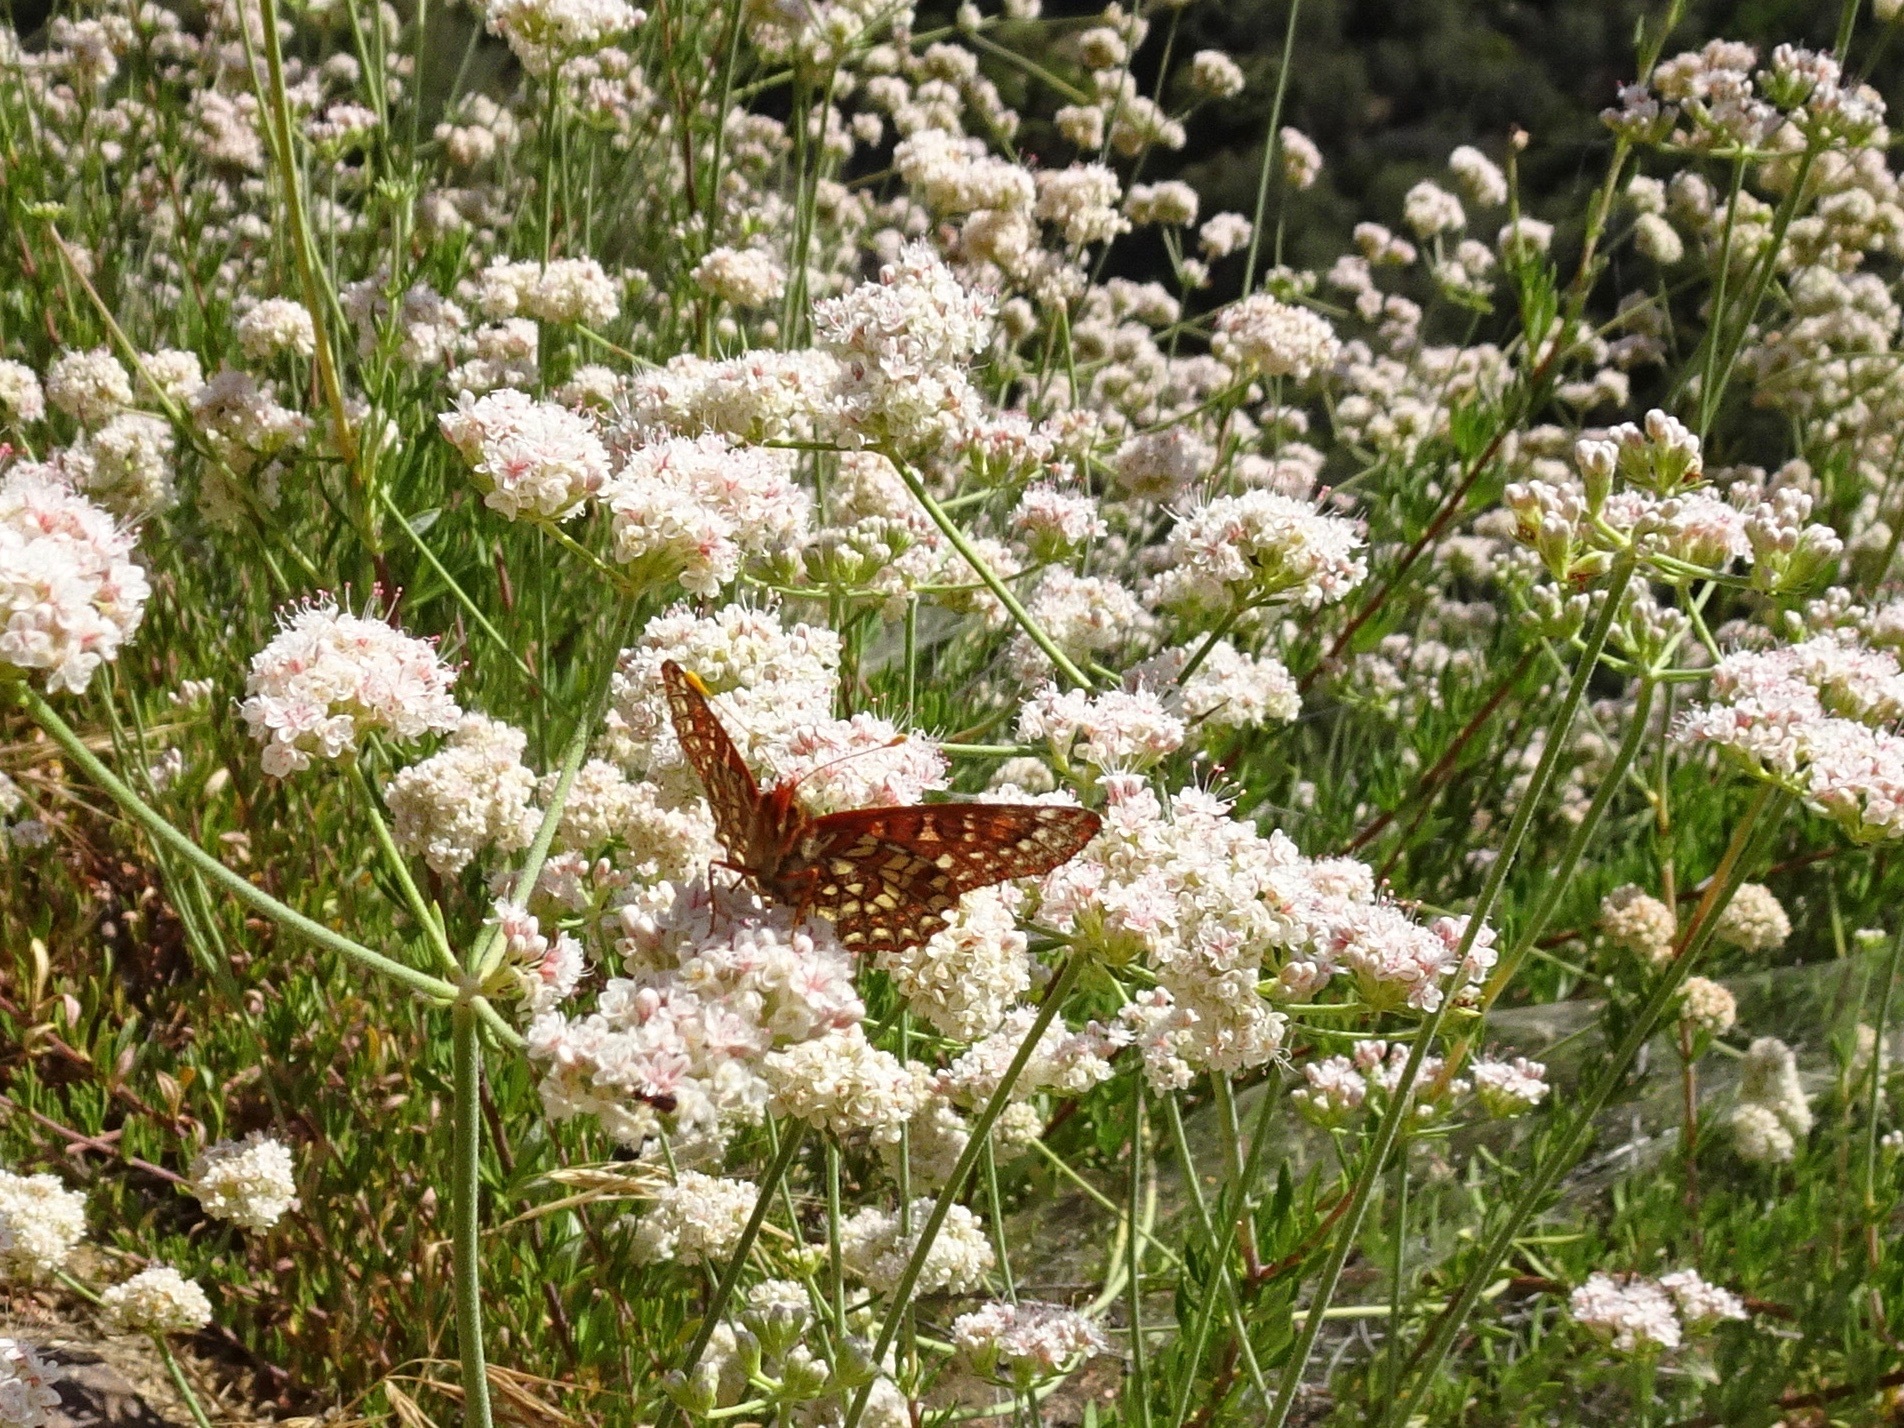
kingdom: Animalia
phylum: Arthropoda
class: Insecta
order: Lepidoptera
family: Nymphalidae
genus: Occidryas
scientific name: Occidryas chalcedona
